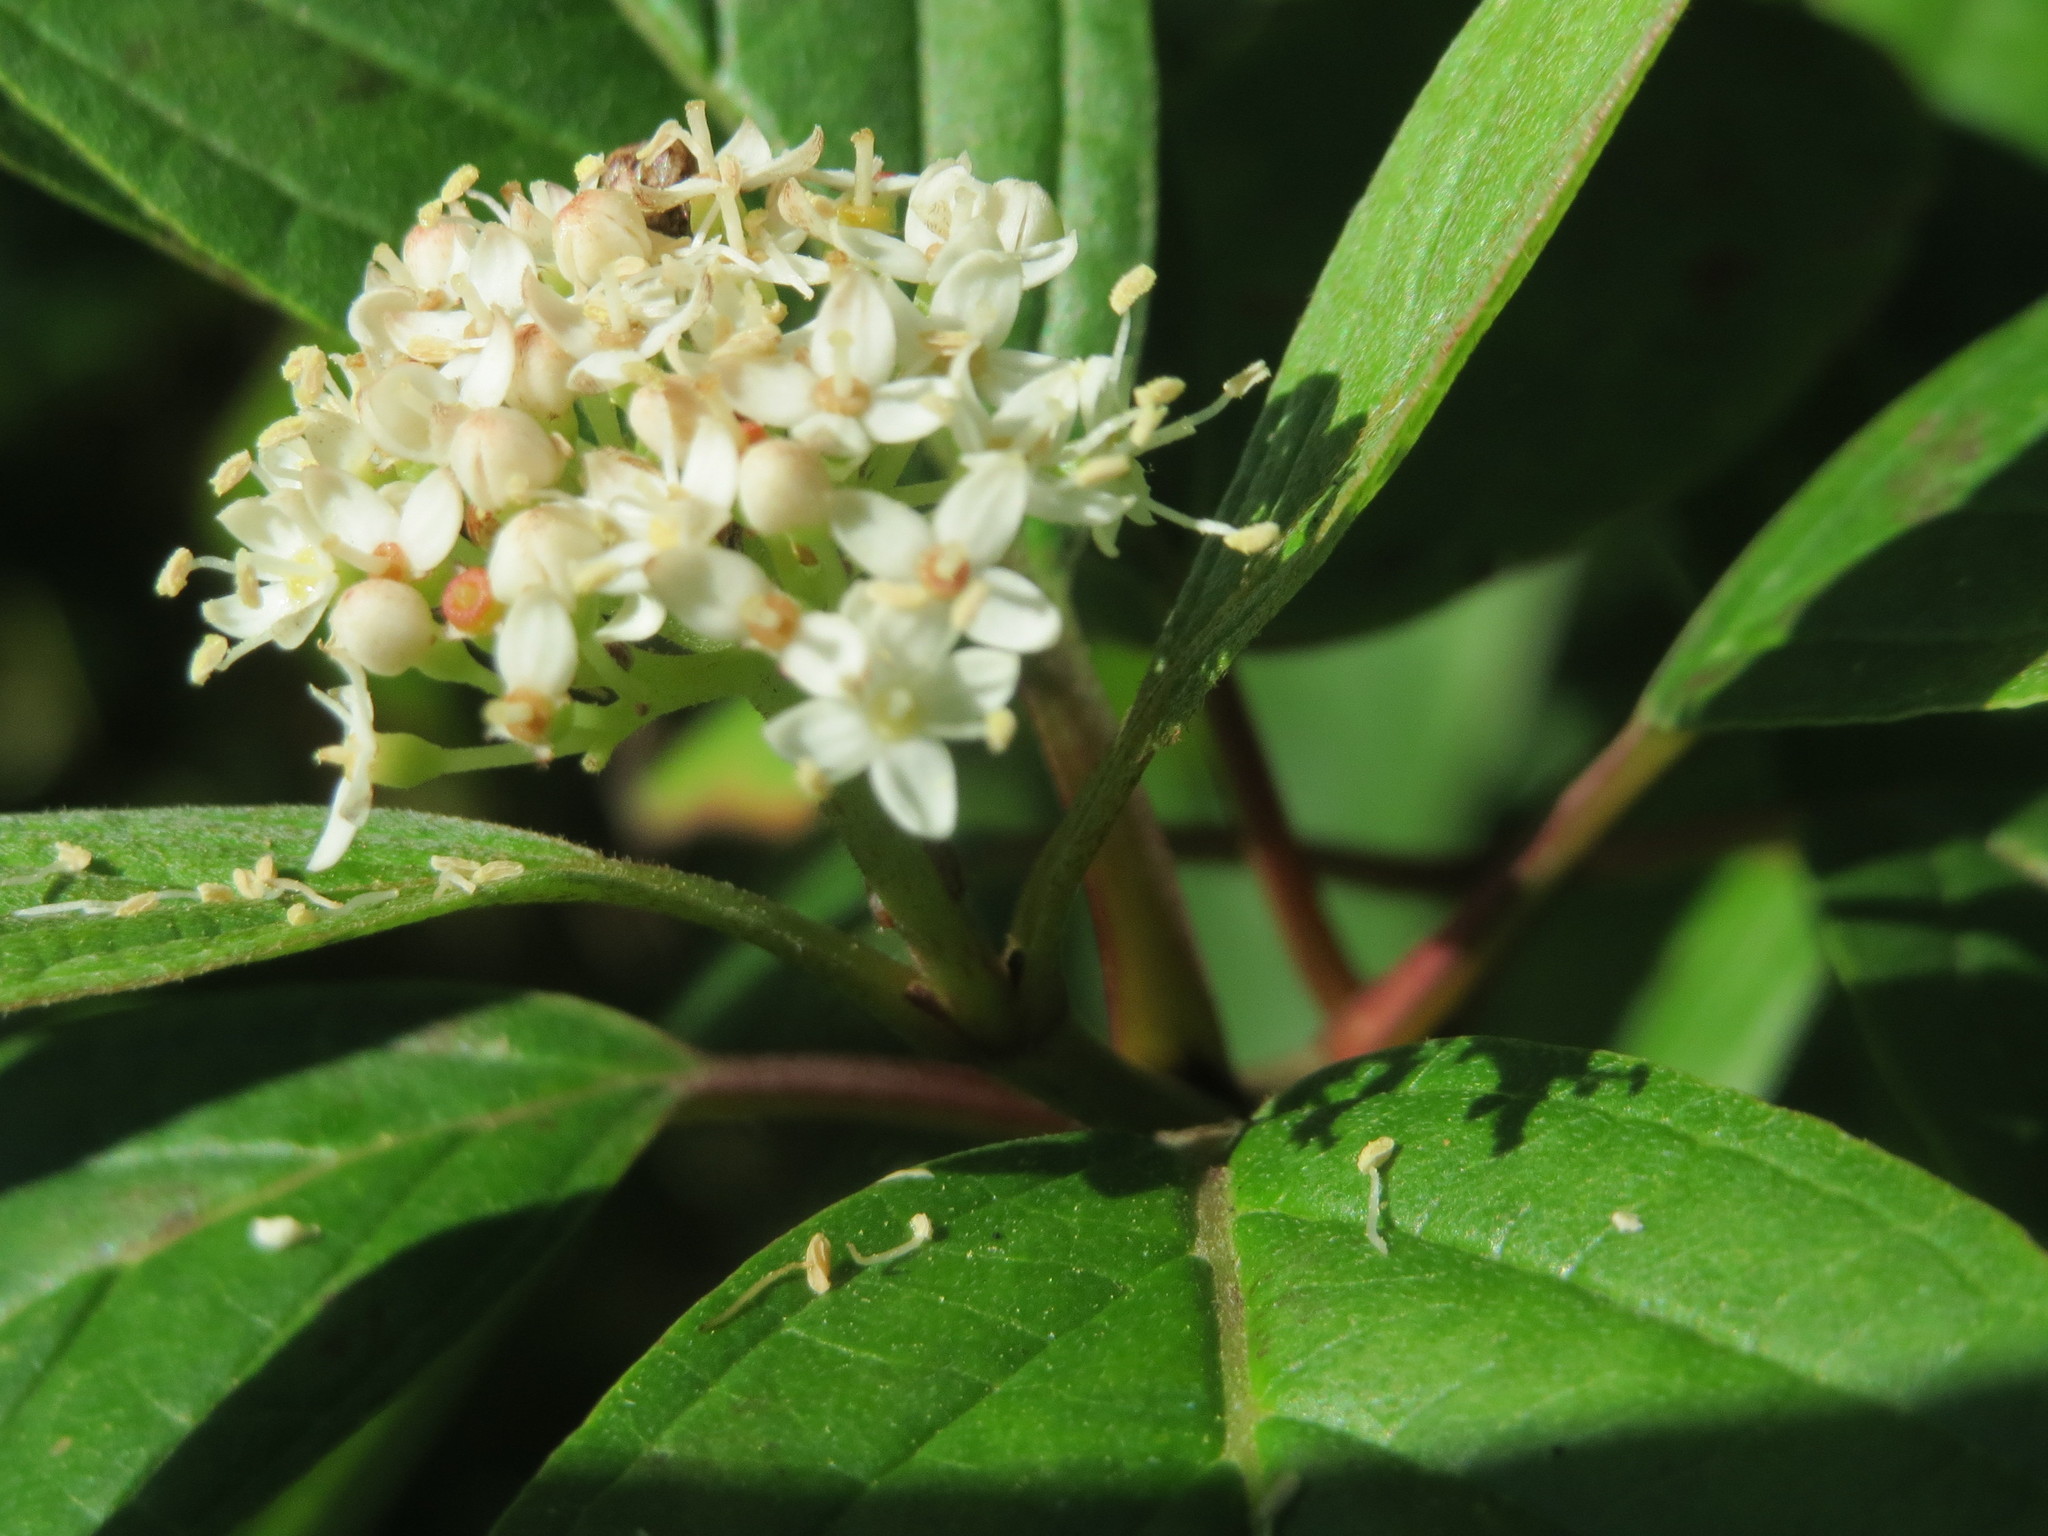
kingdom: Plantae
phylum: Tracheophyta
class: Magnoliopsida
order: Cornales
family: Cornaceae
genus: Cornus
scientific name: Cornus sericea
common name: Red-osier dogwood
